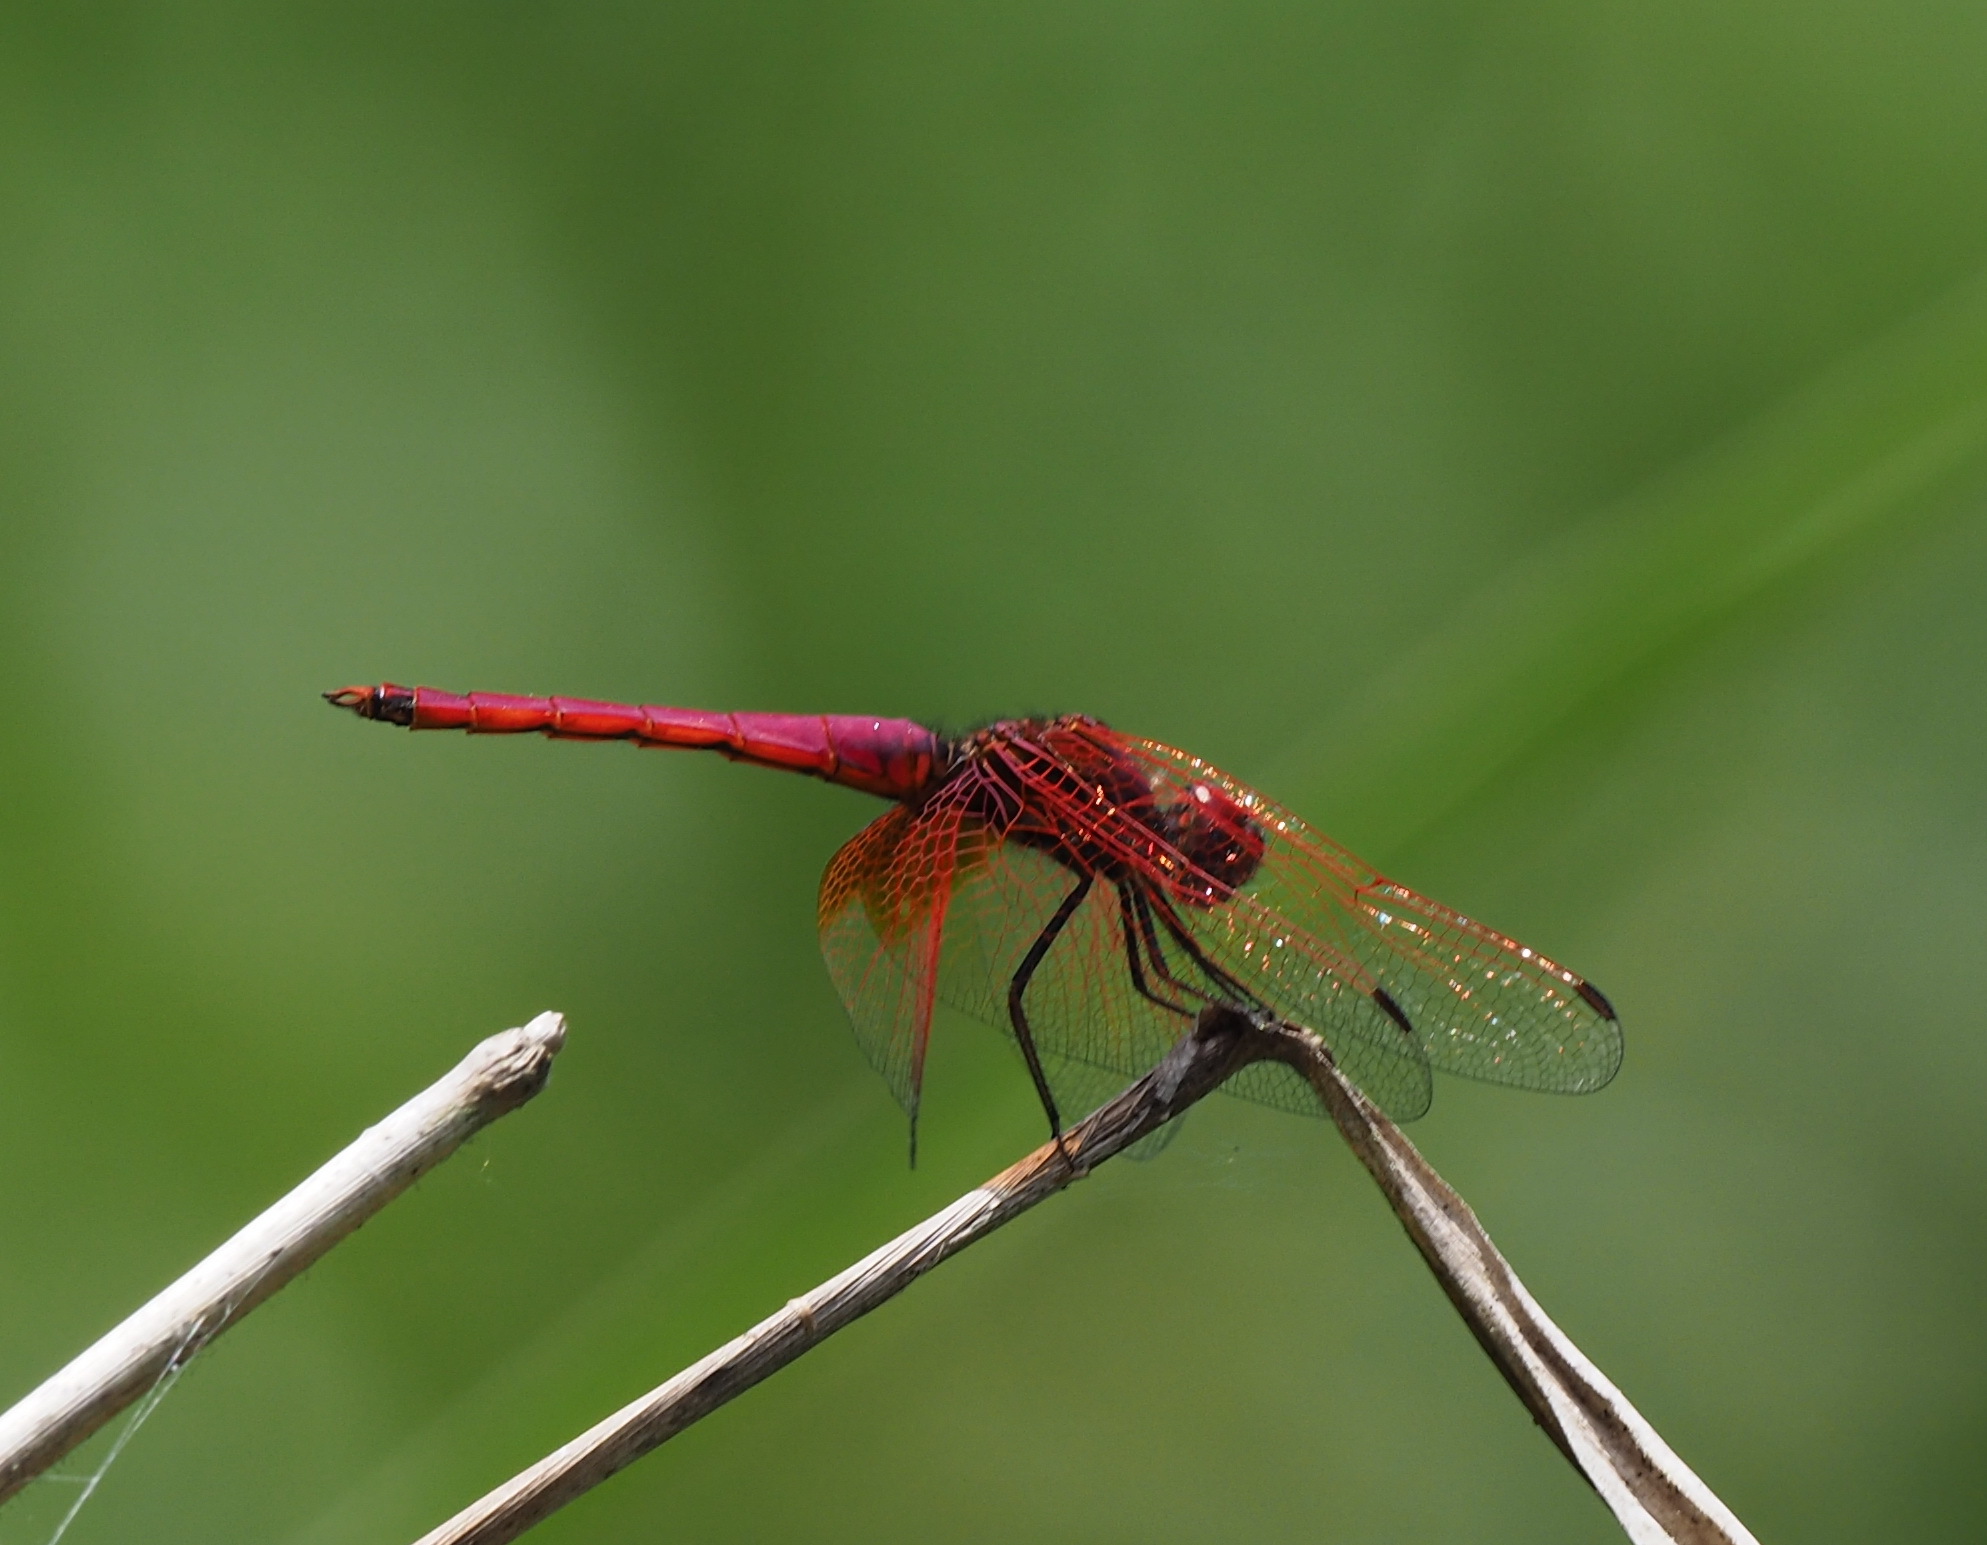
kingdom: Animalia
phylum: Arthropoda
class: Insecta
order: Odonata
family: Libellulidae
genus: Trithemis
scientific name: Trithemis aurora
